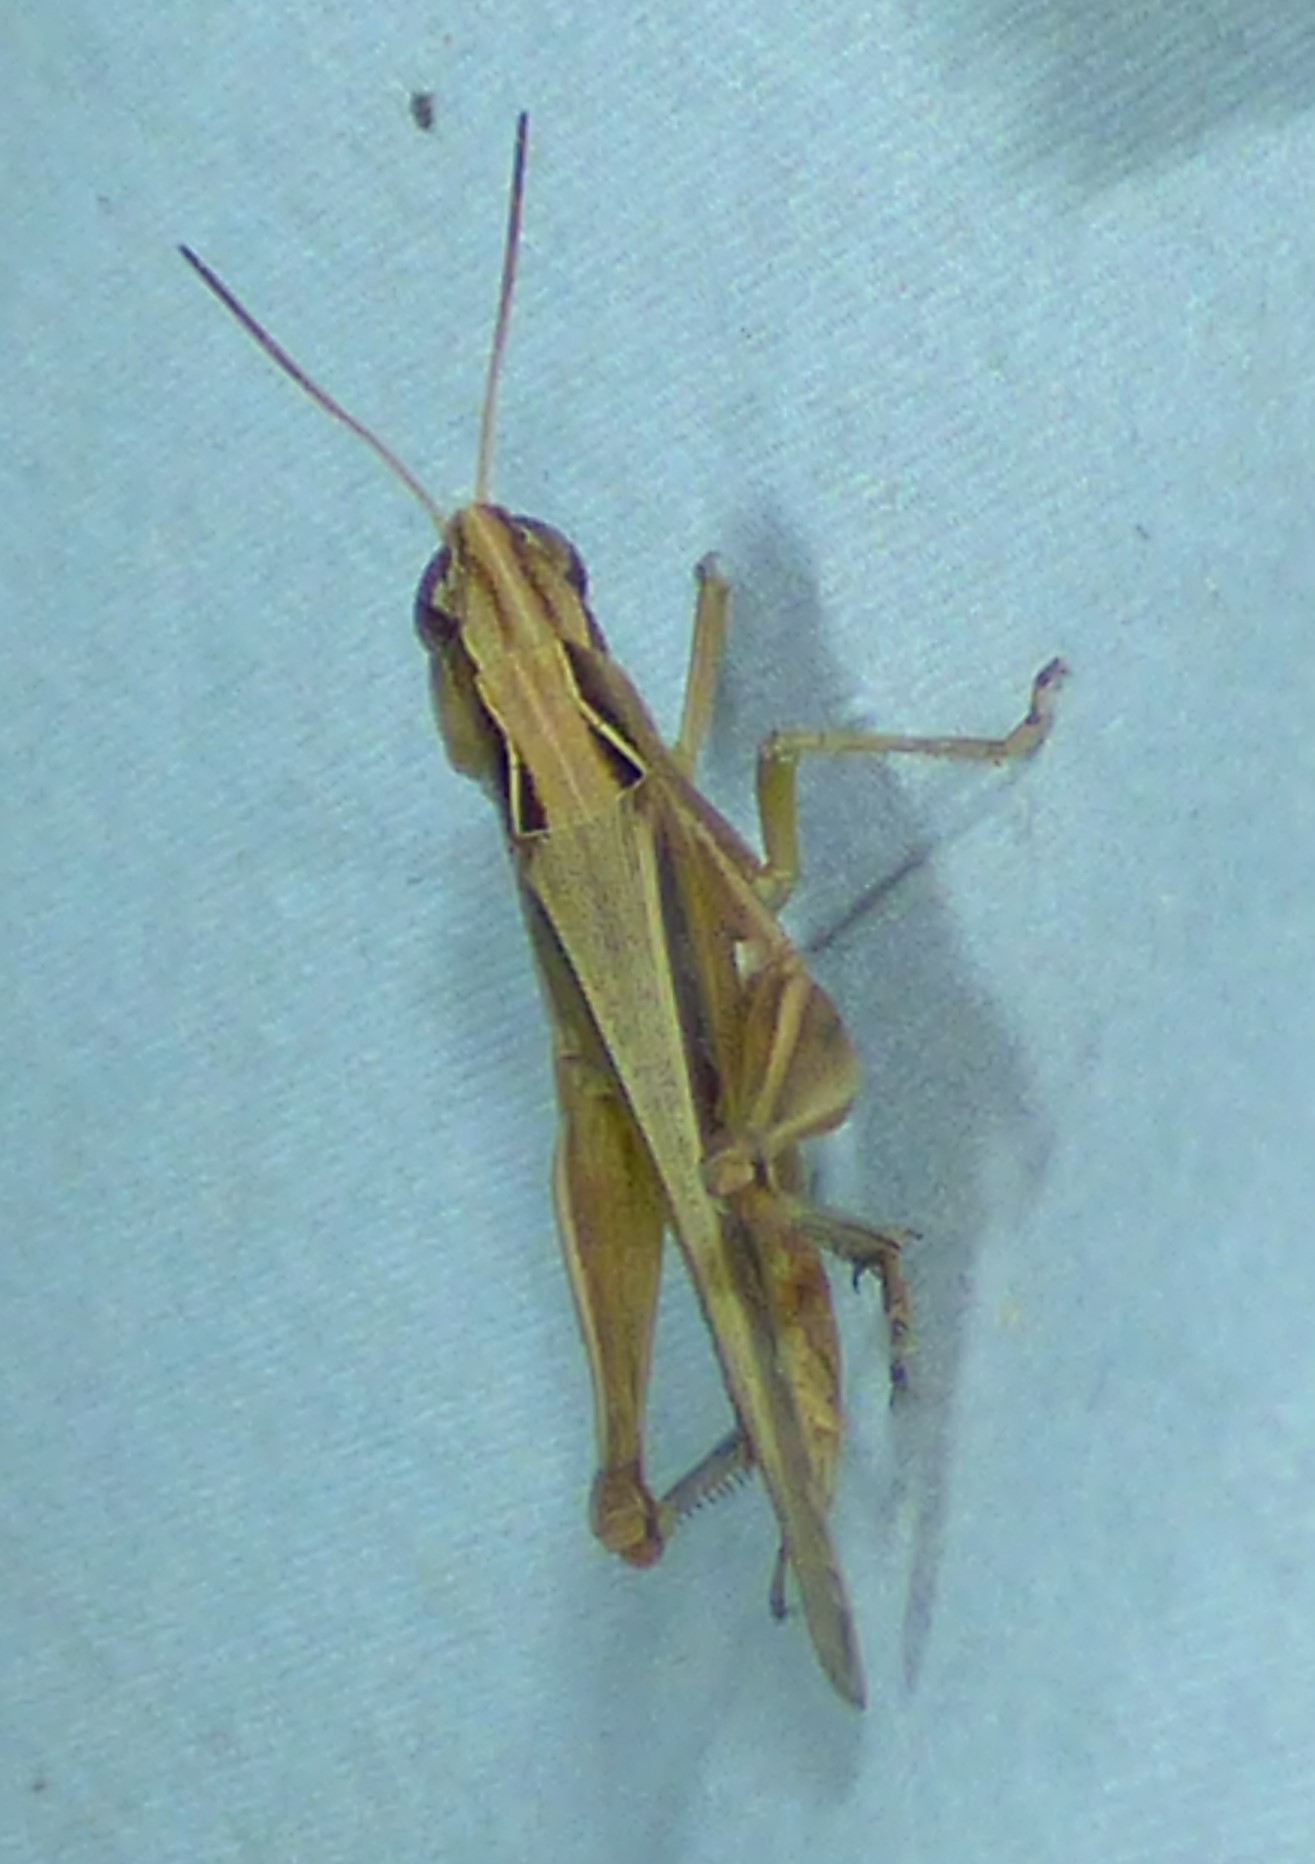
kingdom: Animalia
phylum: Arthropoda
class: Insecta
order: Orthoptera
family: Acrididae
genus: Orphulella
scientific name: Orphulella pelidna
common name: Spotted-wing grasshopper
